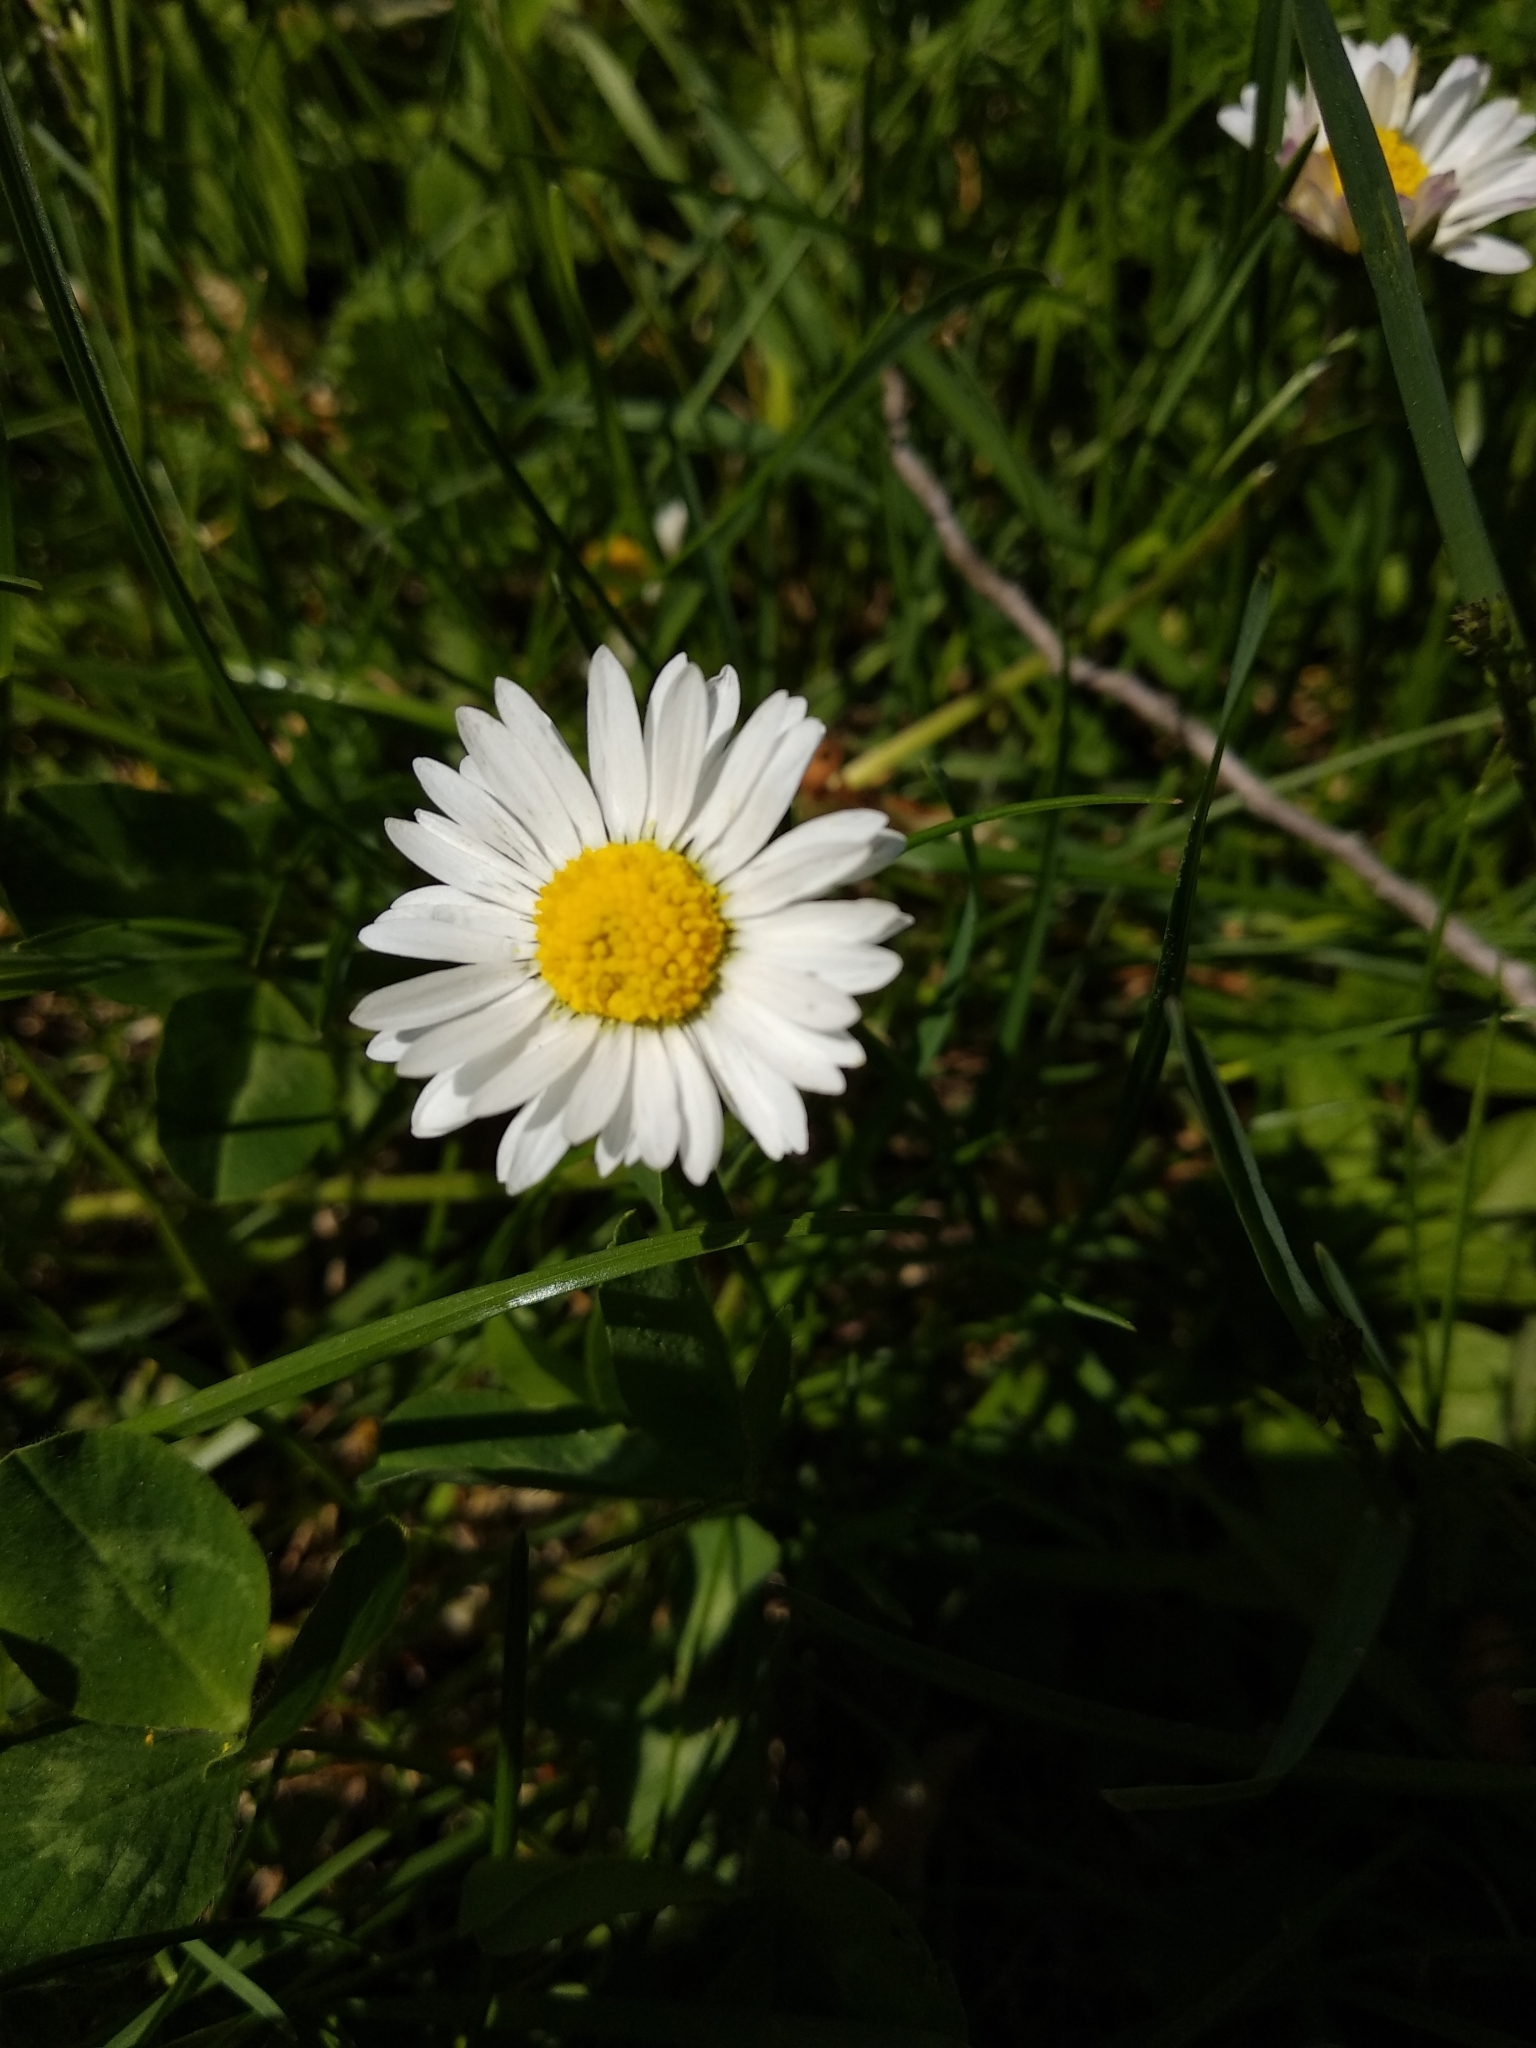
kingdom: Plantae
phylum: Tracheophyta
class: Magnoliopsida
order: Asterales
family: Asteraceae
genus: Bellis
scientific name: Bellis perennis
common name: Lawndaisy
